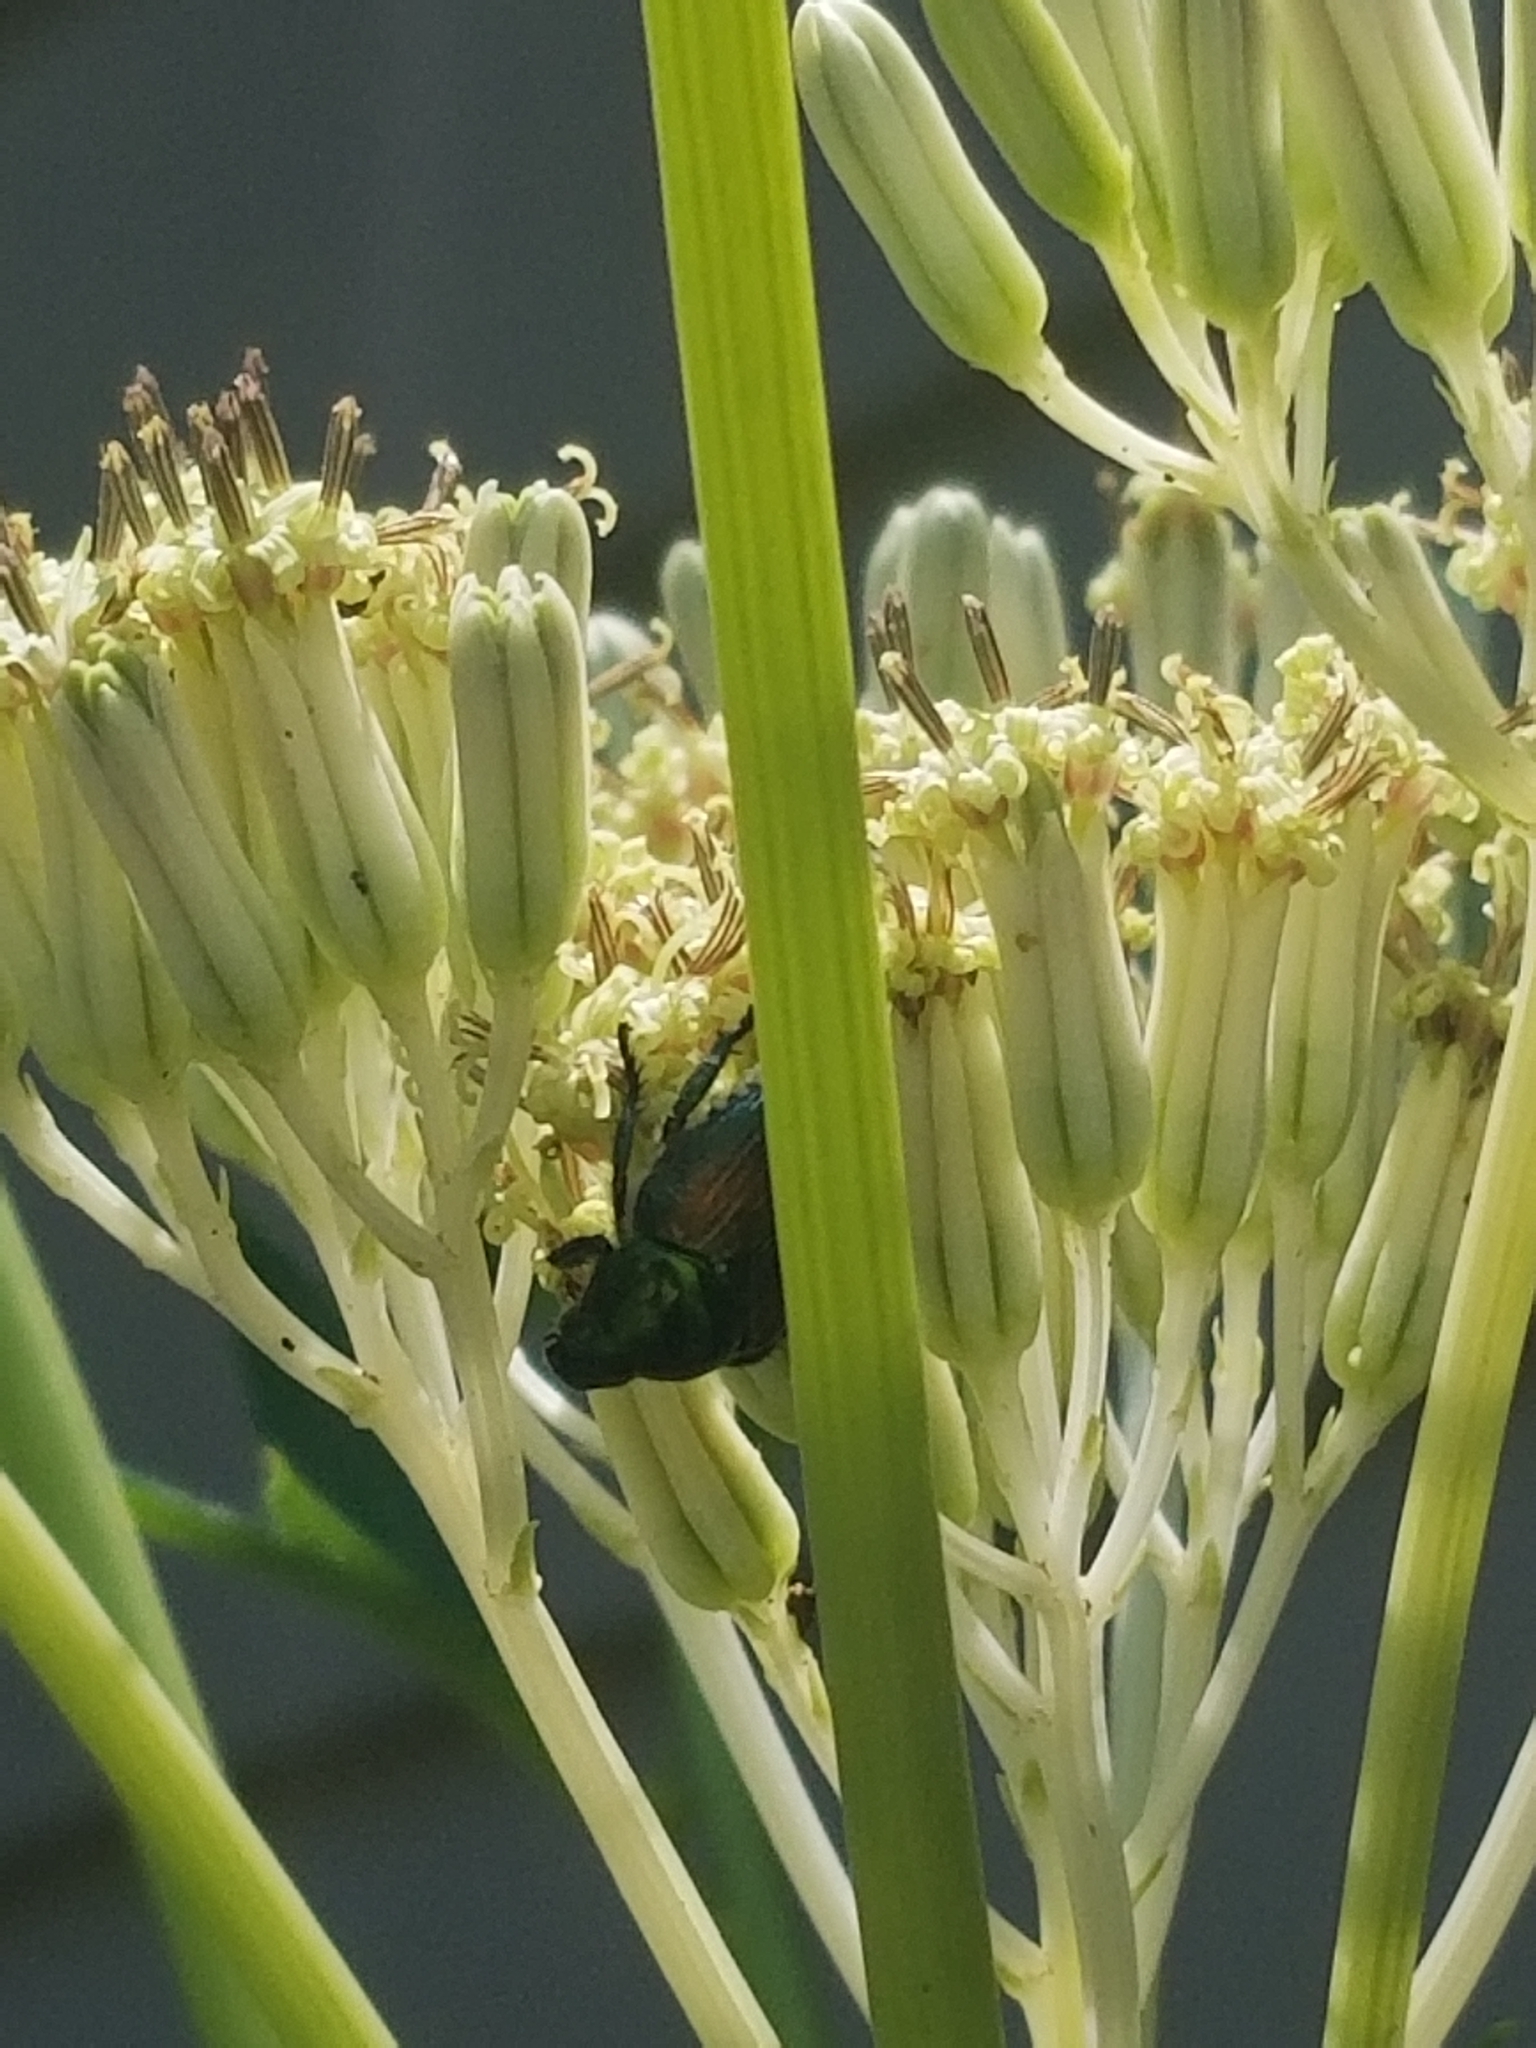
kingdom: Animalia
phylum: Arthropoda
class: Insecta
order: Coleoptera
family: Scarabaeidae
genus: Popillia
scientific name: Popillia japonica
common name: Japanese beetle
